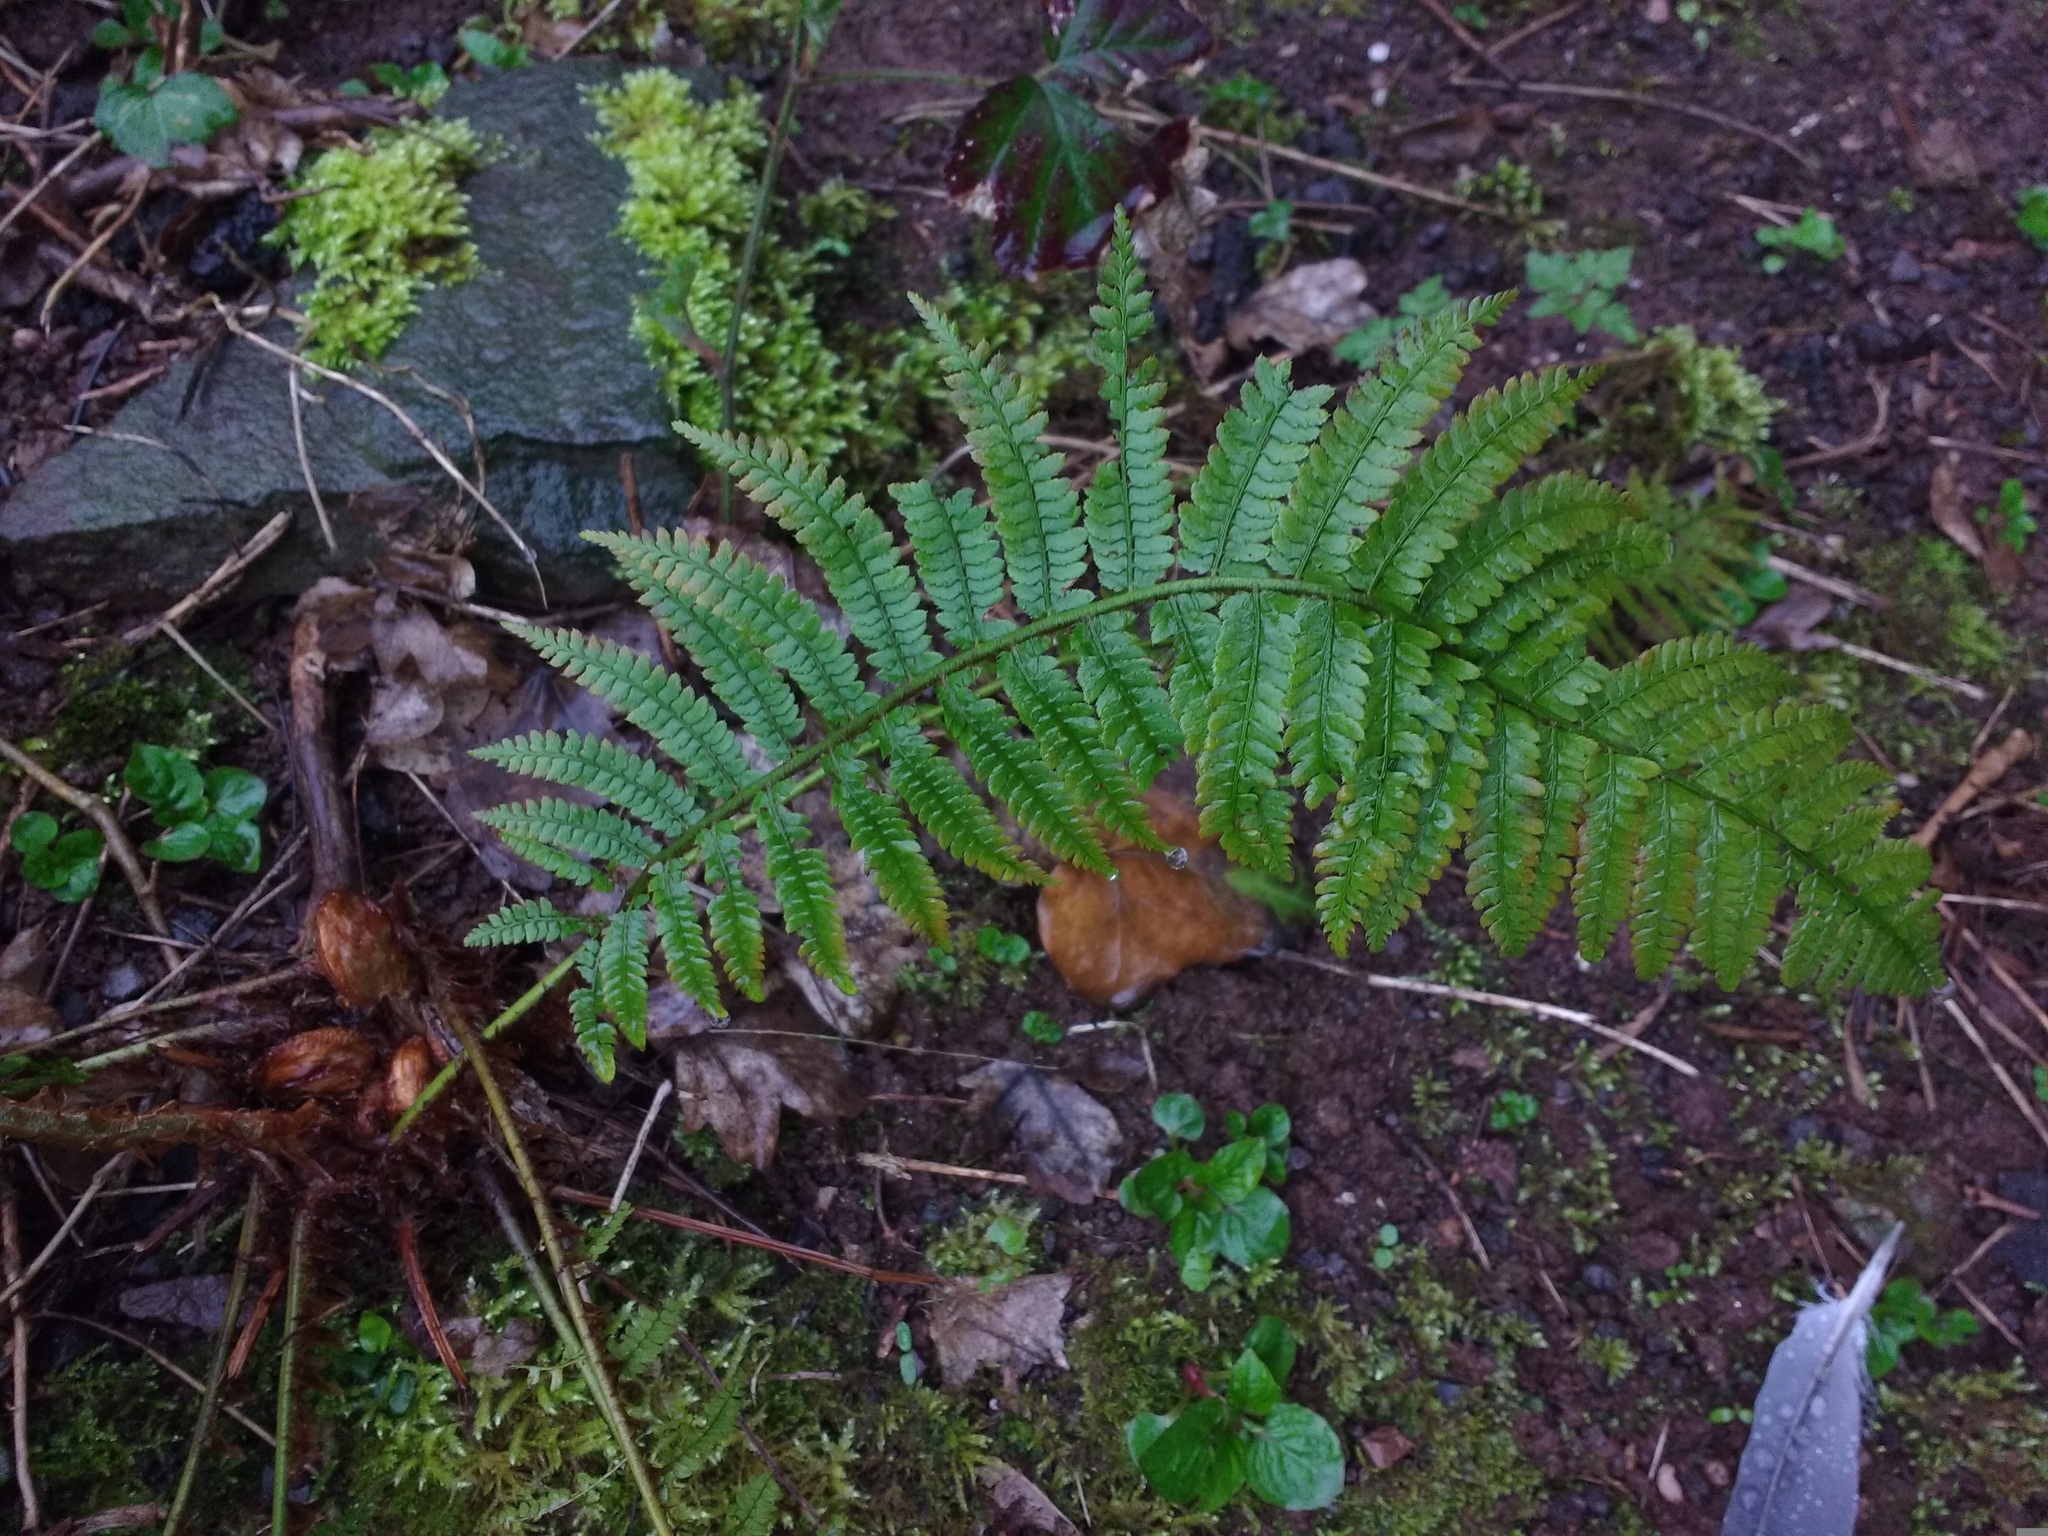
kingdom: Plantae
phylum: Tracheophyta
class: Polypodiopsida
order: Polypodiales
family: Dryopteridaceae
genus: Polystichum
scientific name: Polystichum setiferum
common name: Soft shield-fern
